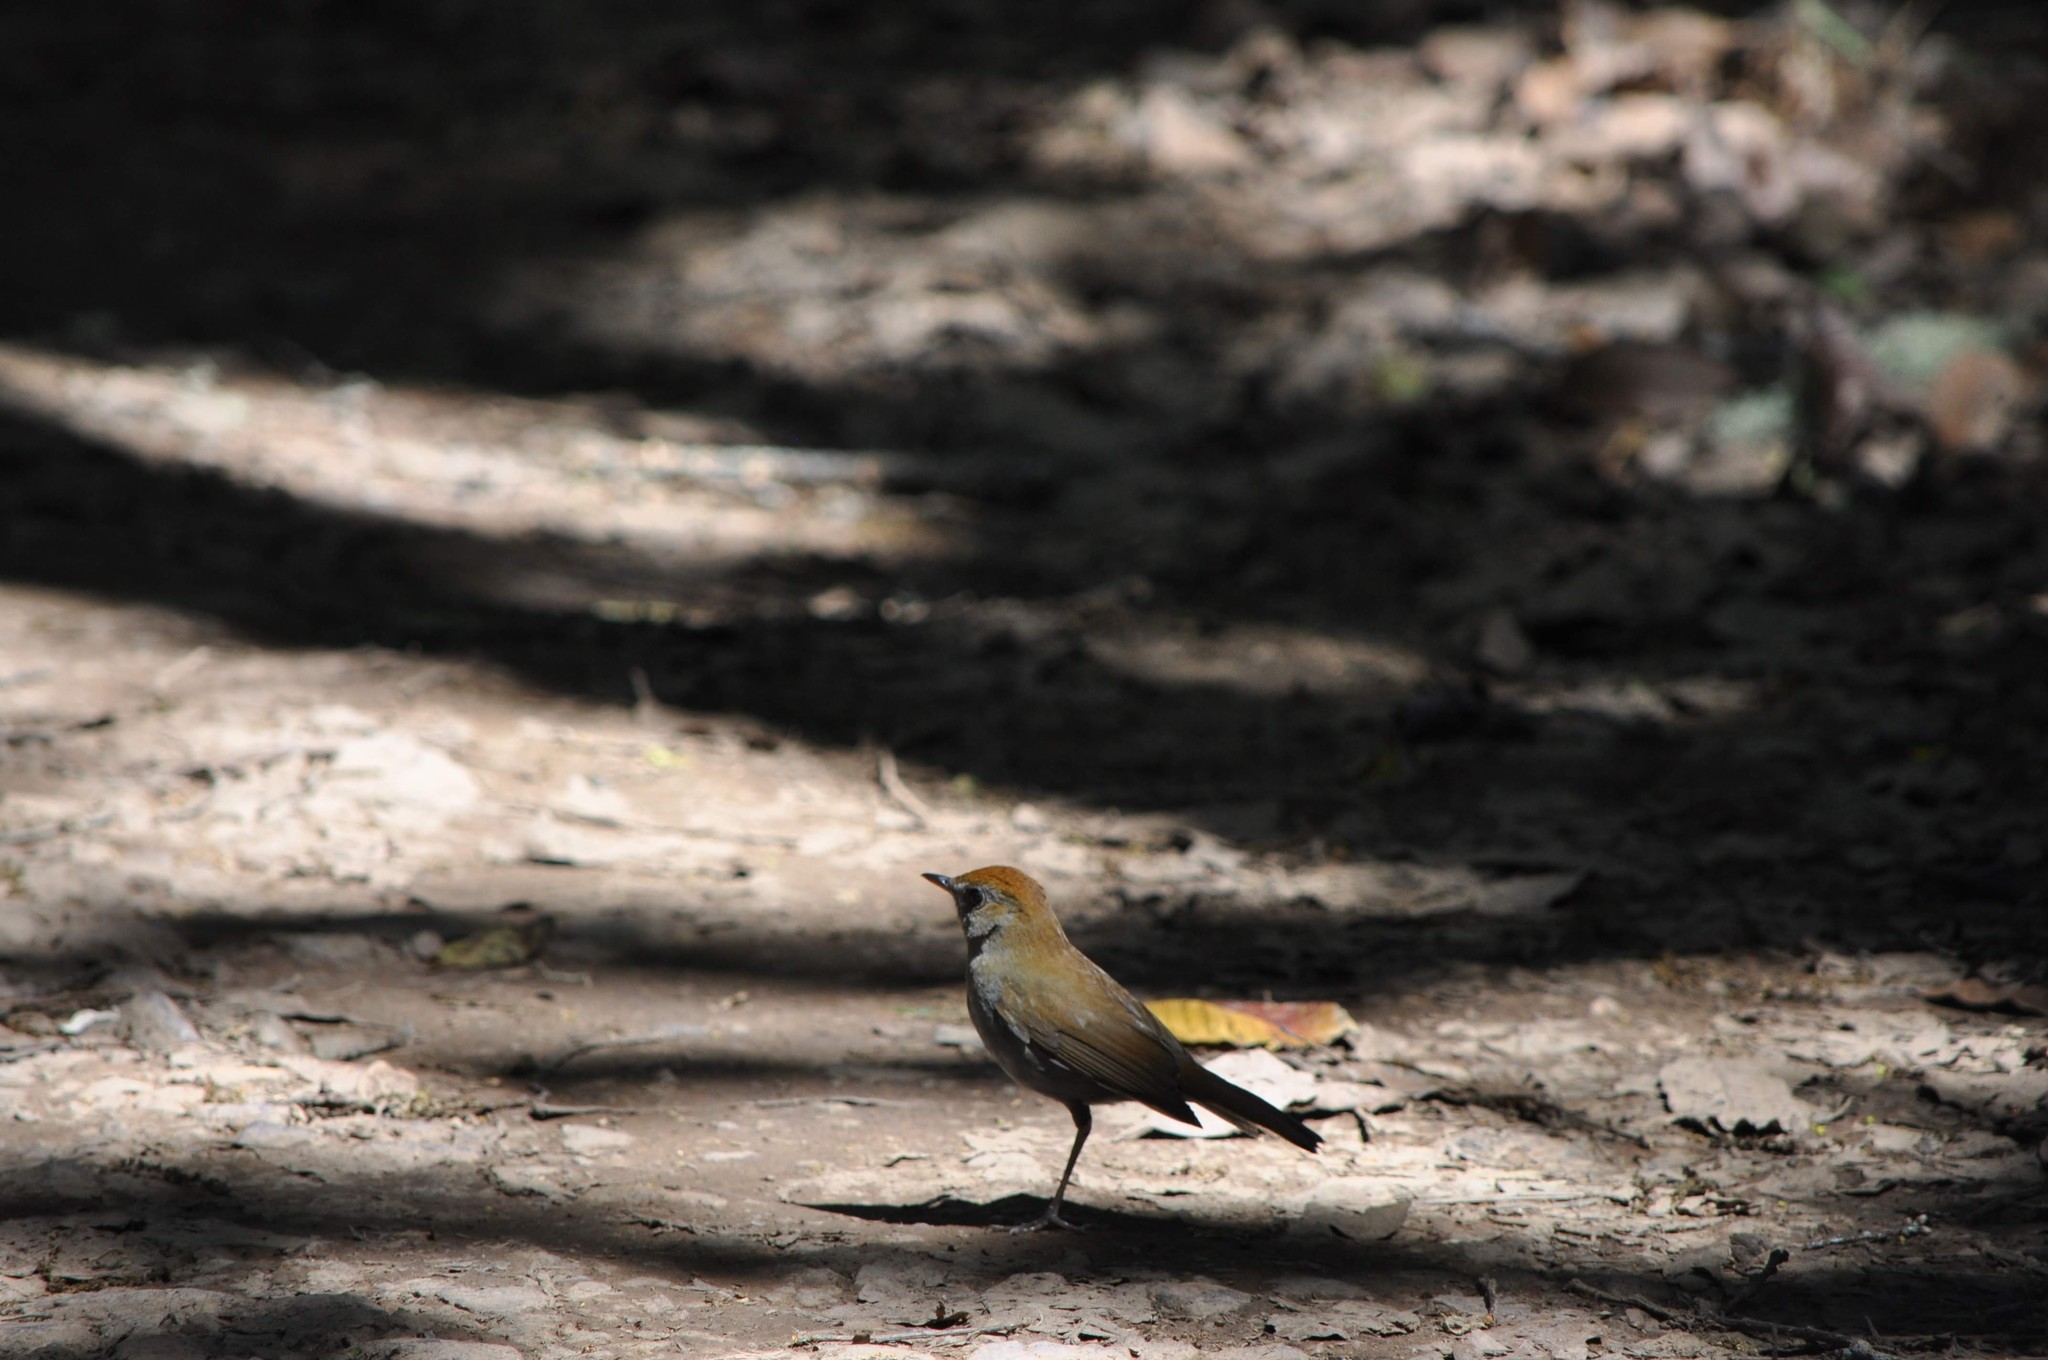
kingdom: Animalia
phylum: Chordata
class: Aves
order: Passeriformes
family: Turdidae
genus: Catharus
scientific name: Catharus frantzii
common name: Ruddy-capped nightingale-thrush
